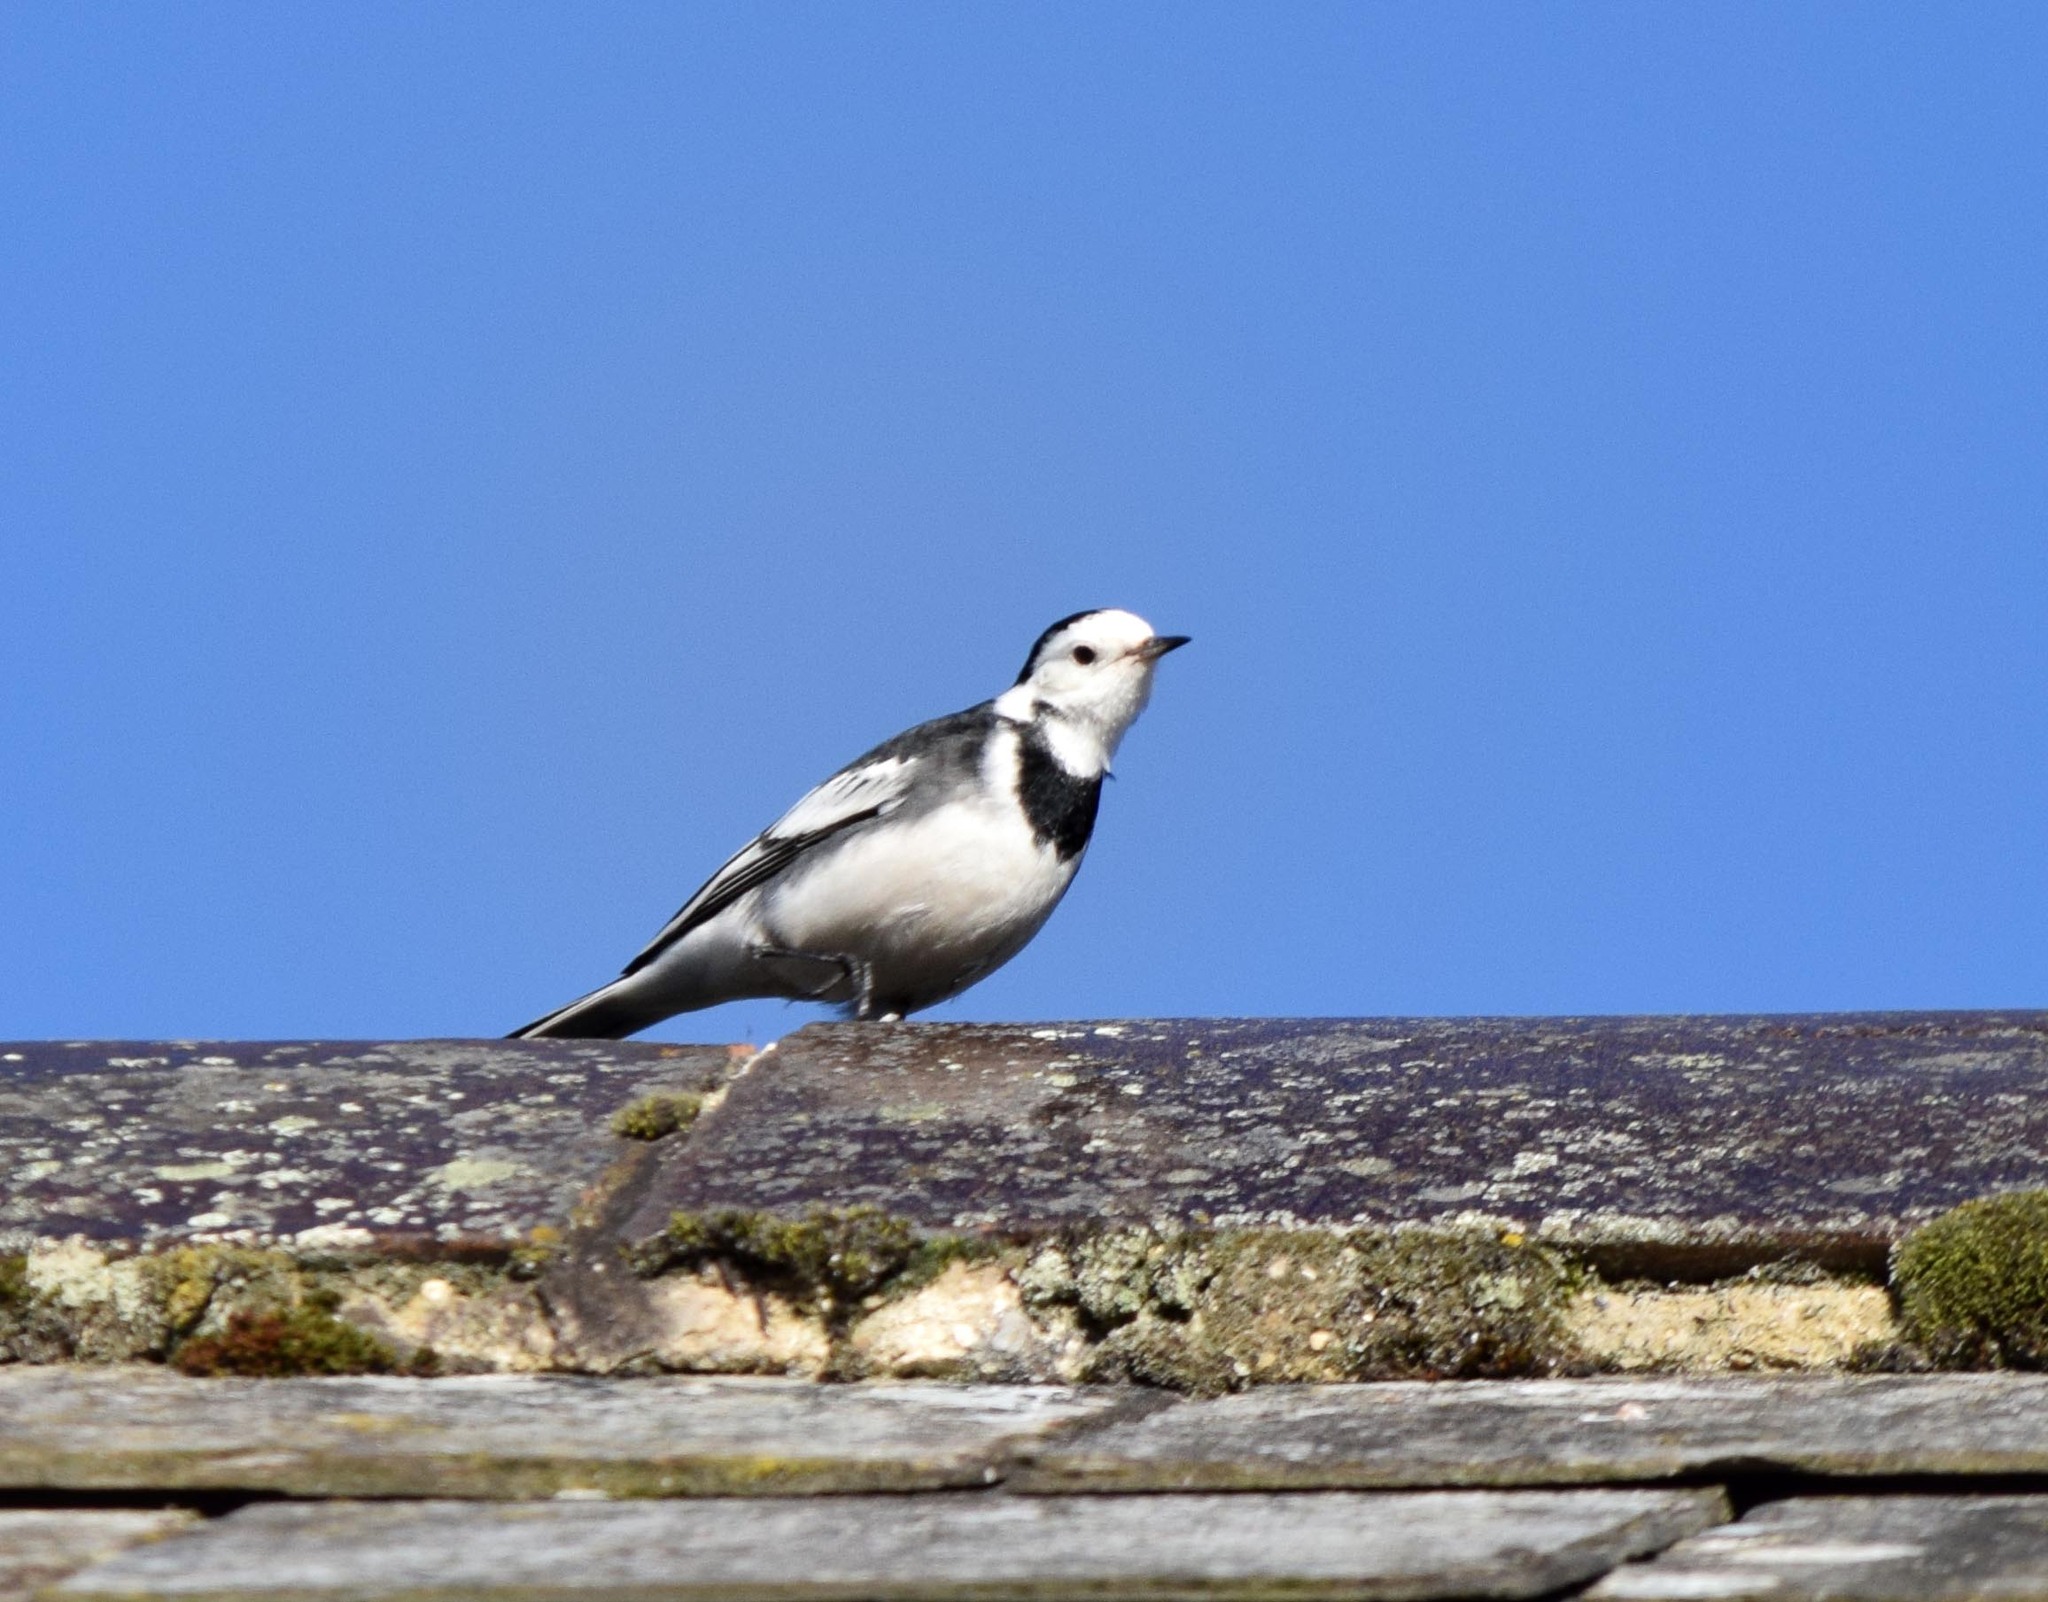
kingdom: Animalia
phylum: Chordata
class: Aves
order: Passeriformes
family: Motacillidae
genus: Motacilla
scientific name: Motacilla alba
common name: White wagtail
